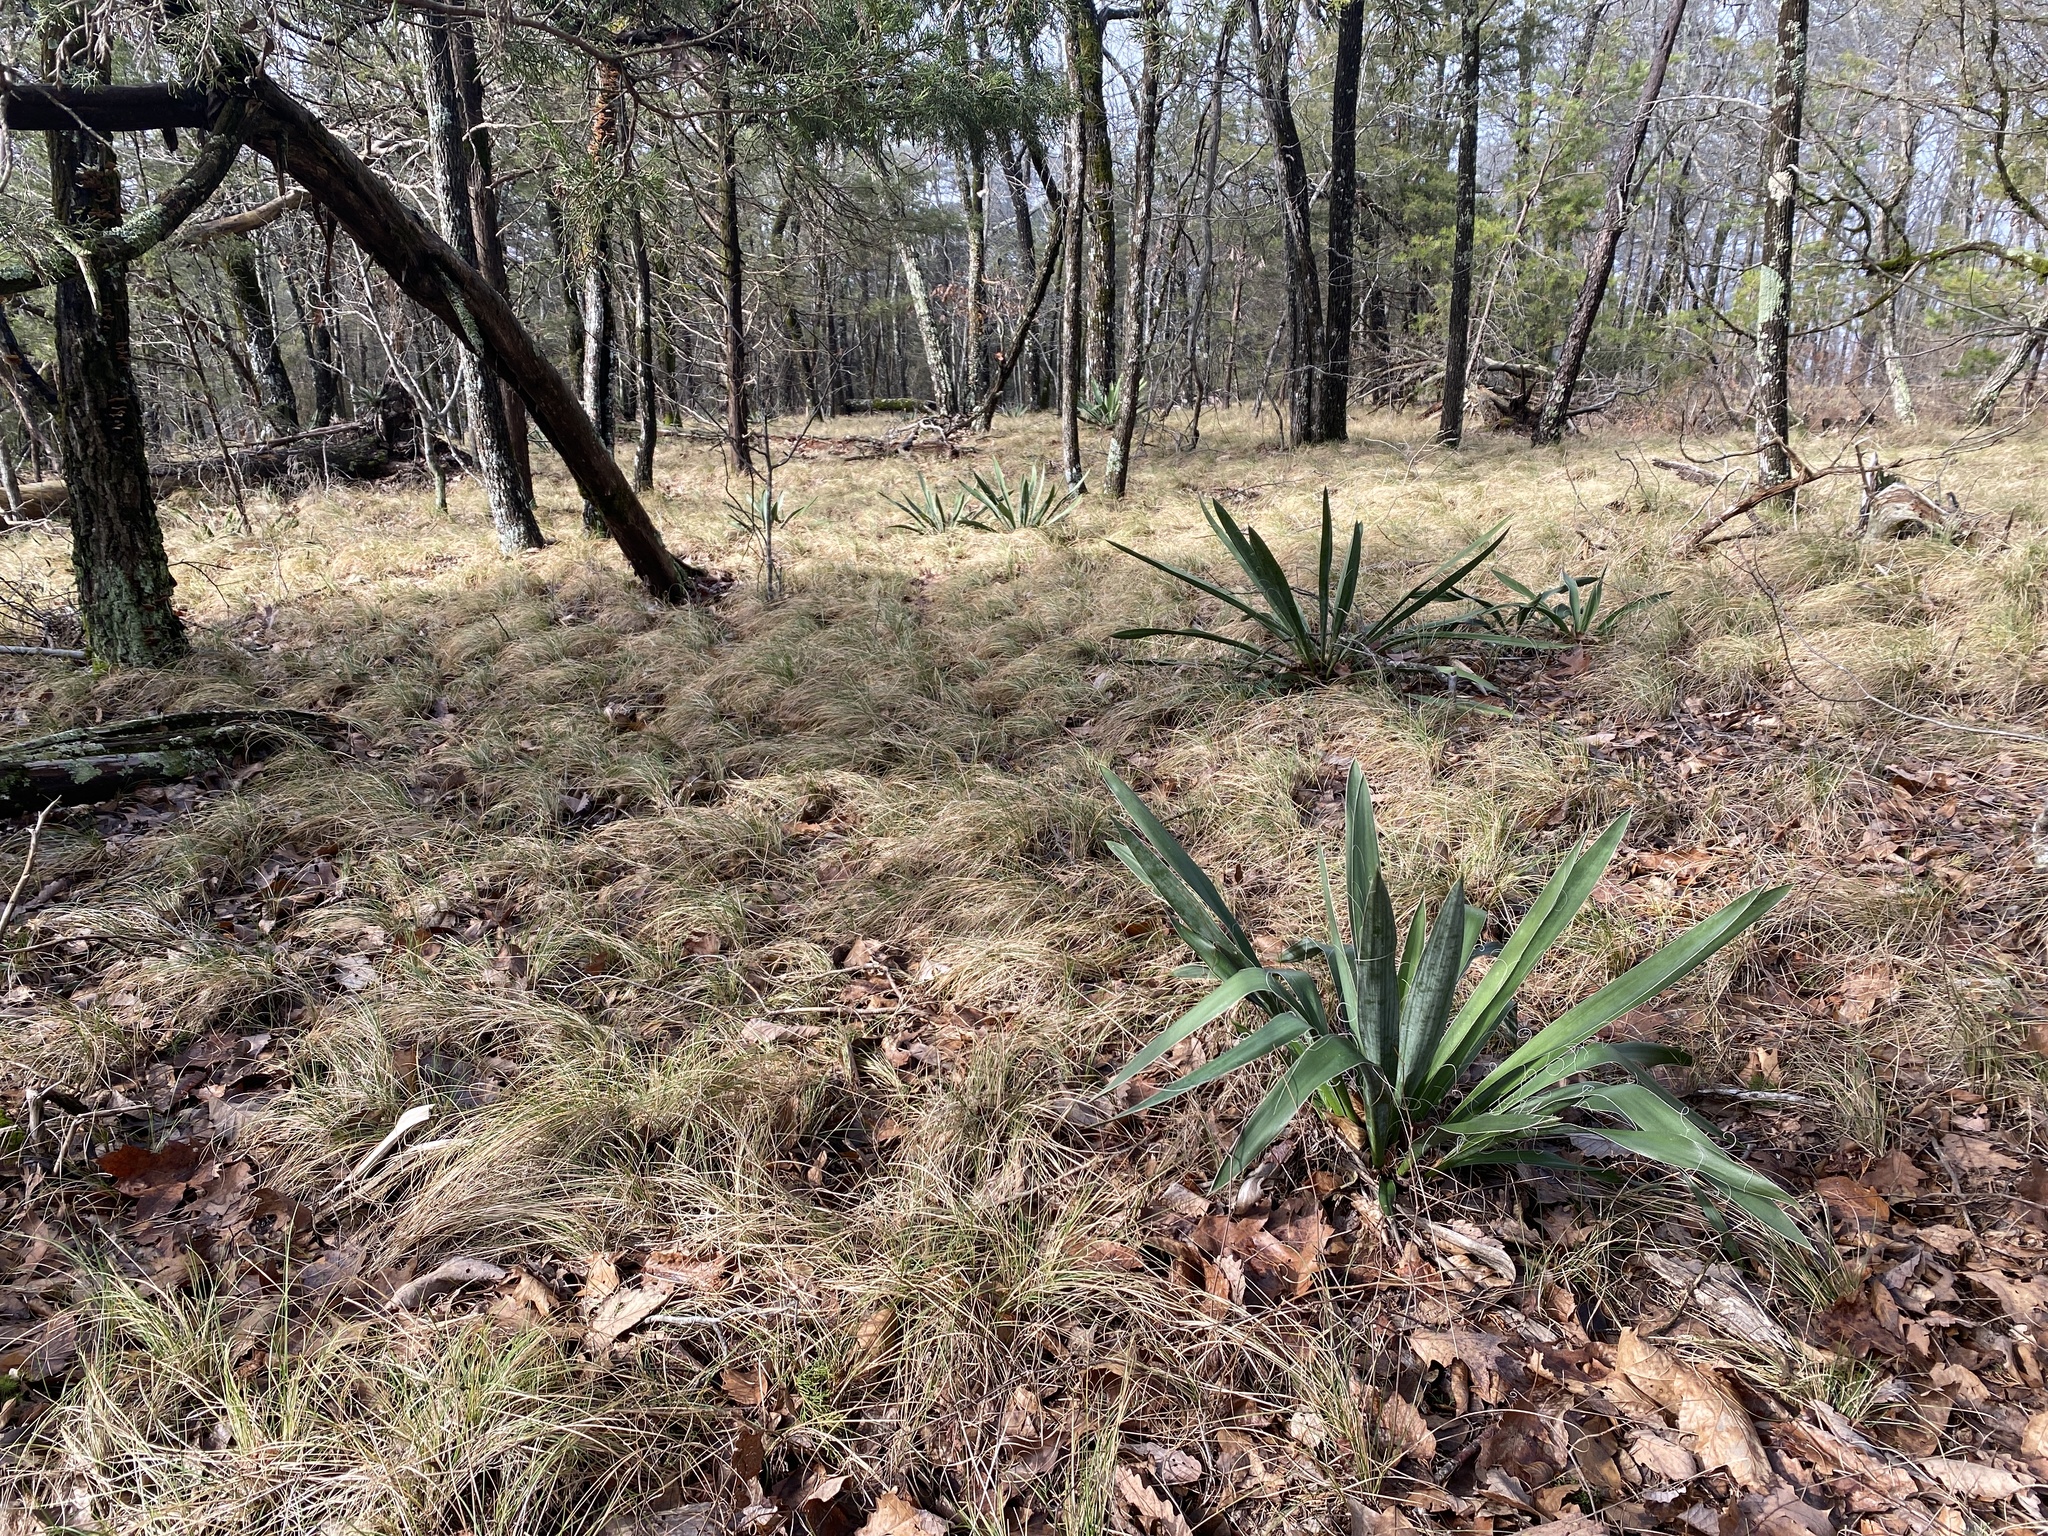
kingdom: Plantae
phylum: Tracheophyta
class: Liliopsida
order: Asparagales
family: Asparagaceae
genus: Yucca
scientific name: Yucca filamentosa
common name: Adam's-needle
